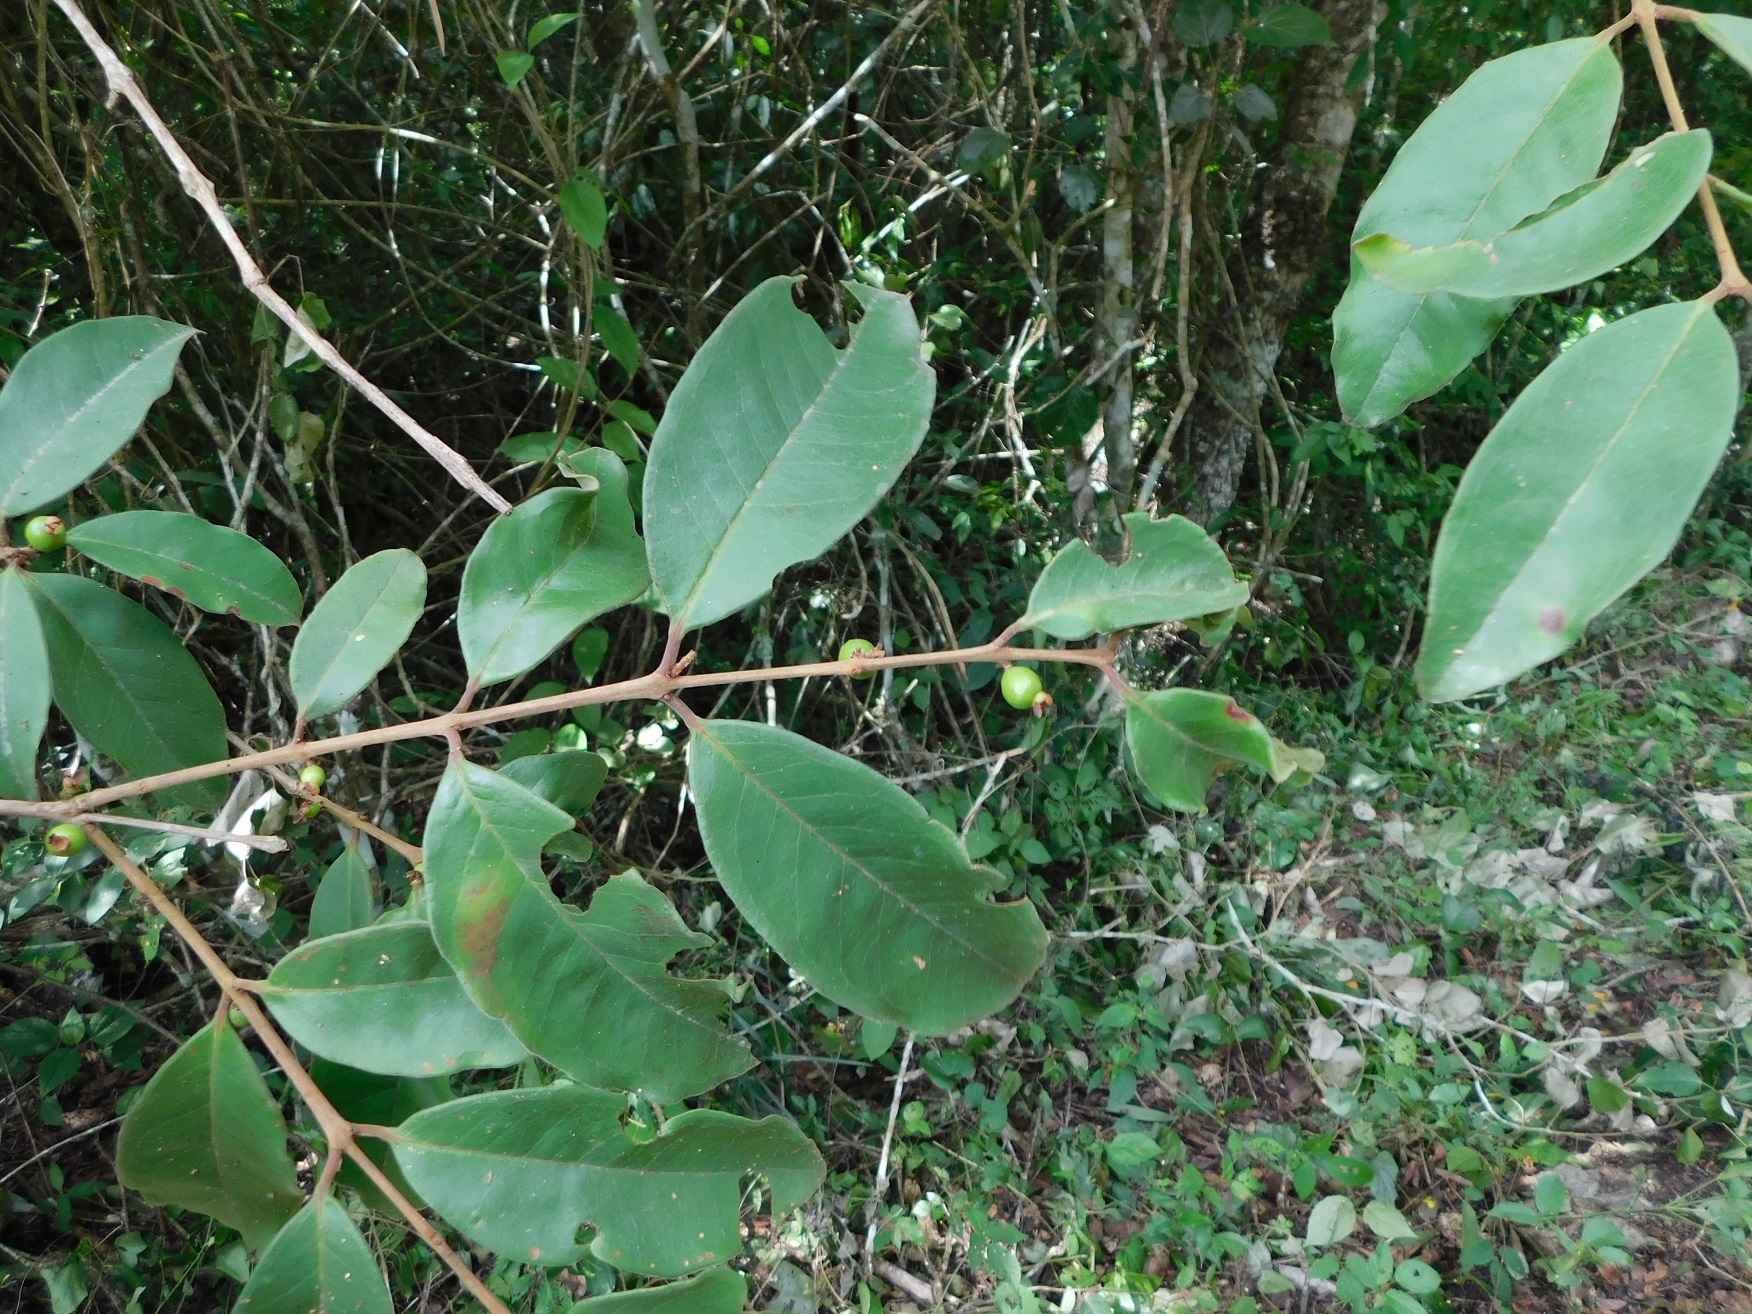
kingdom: Plantae
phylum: Tracheophyta
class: Magnoliopsida
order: Myrtales
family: Myrtaceae
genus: Eugenia
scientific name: Eugenia capulioides
